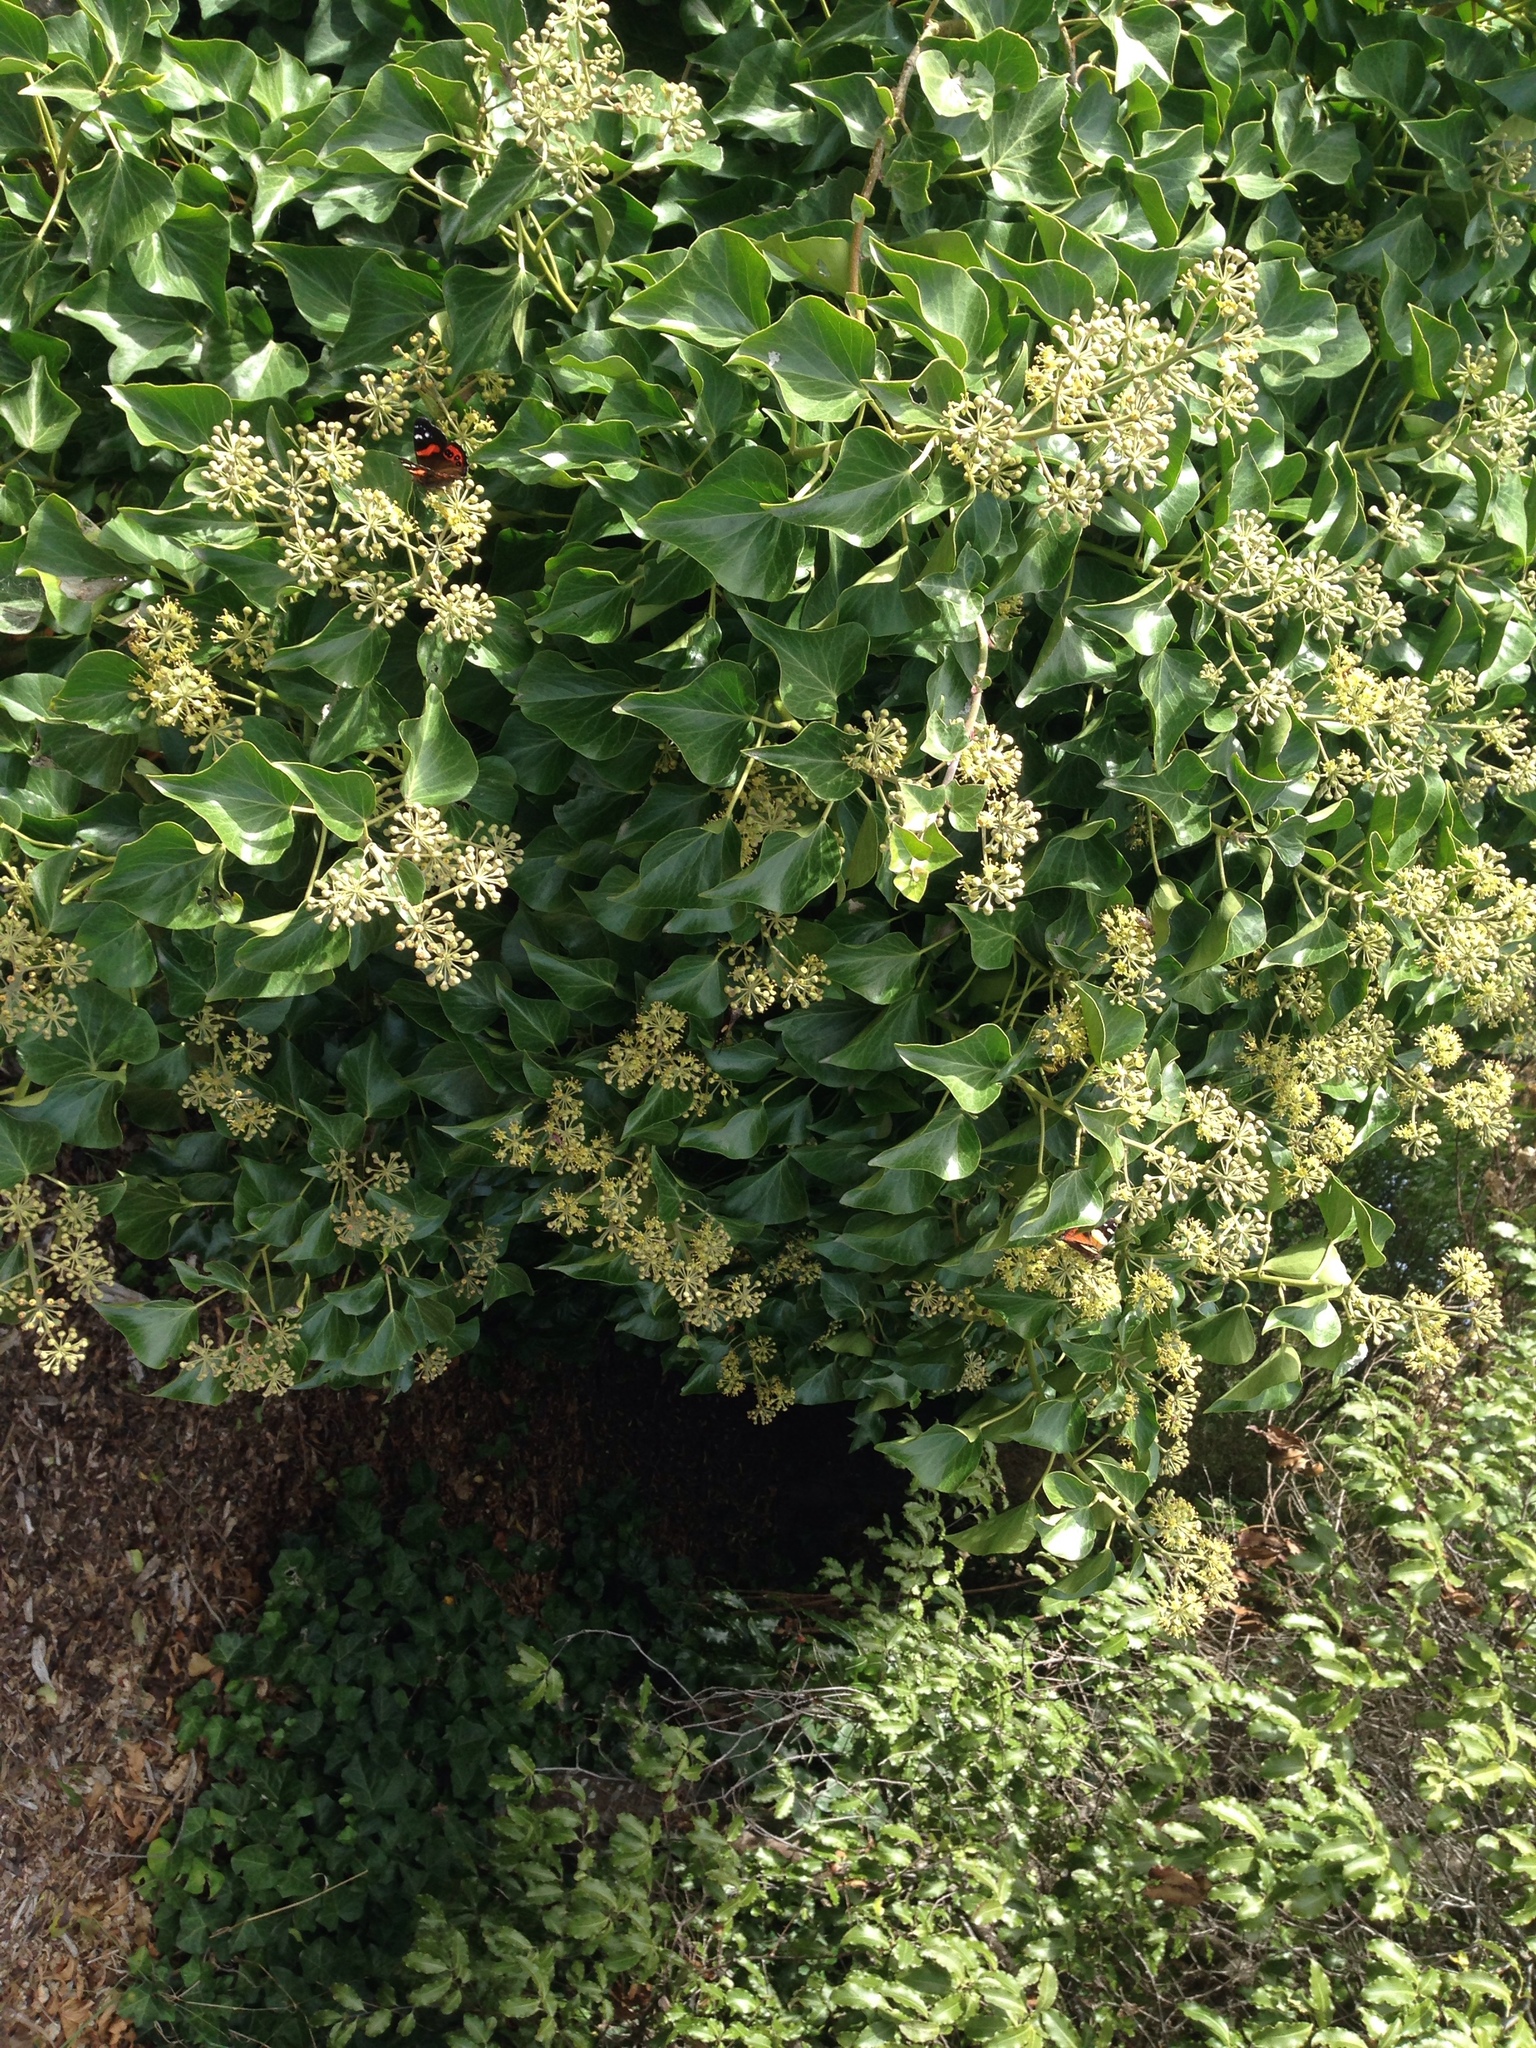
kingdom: Plantae
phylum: Tracheophyta
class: Magnoliopsida
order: Apiales
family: Araliaceae
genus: Hedera
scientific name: Hedera helix
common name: Ivy
